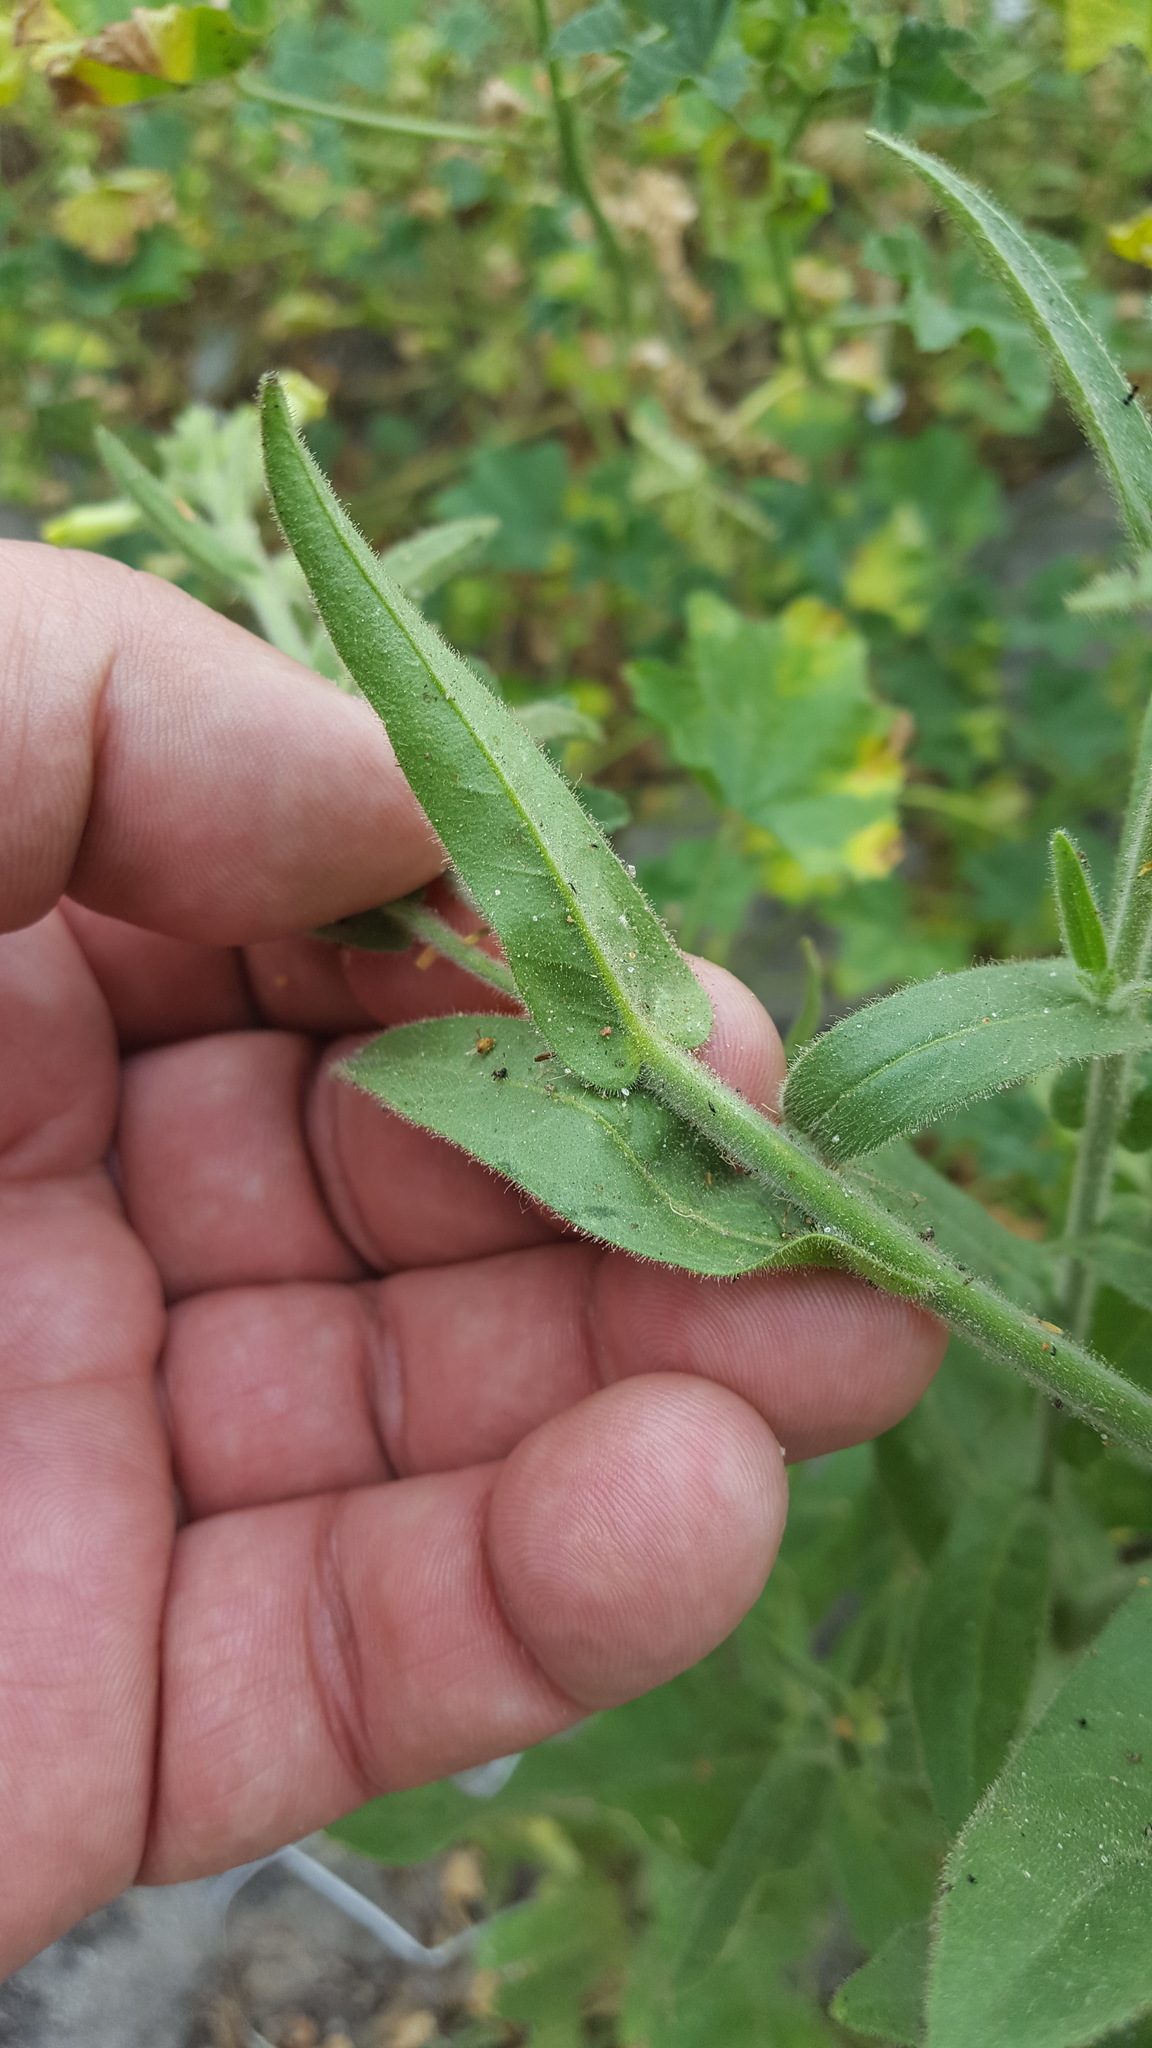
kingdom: Plantae
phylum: Tracheophyta
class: Magnoliopsida
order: Solanales
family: Solanaceae
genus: Nicotiana
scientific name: Nicotiana obtusifolia
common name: Desert tobacco
